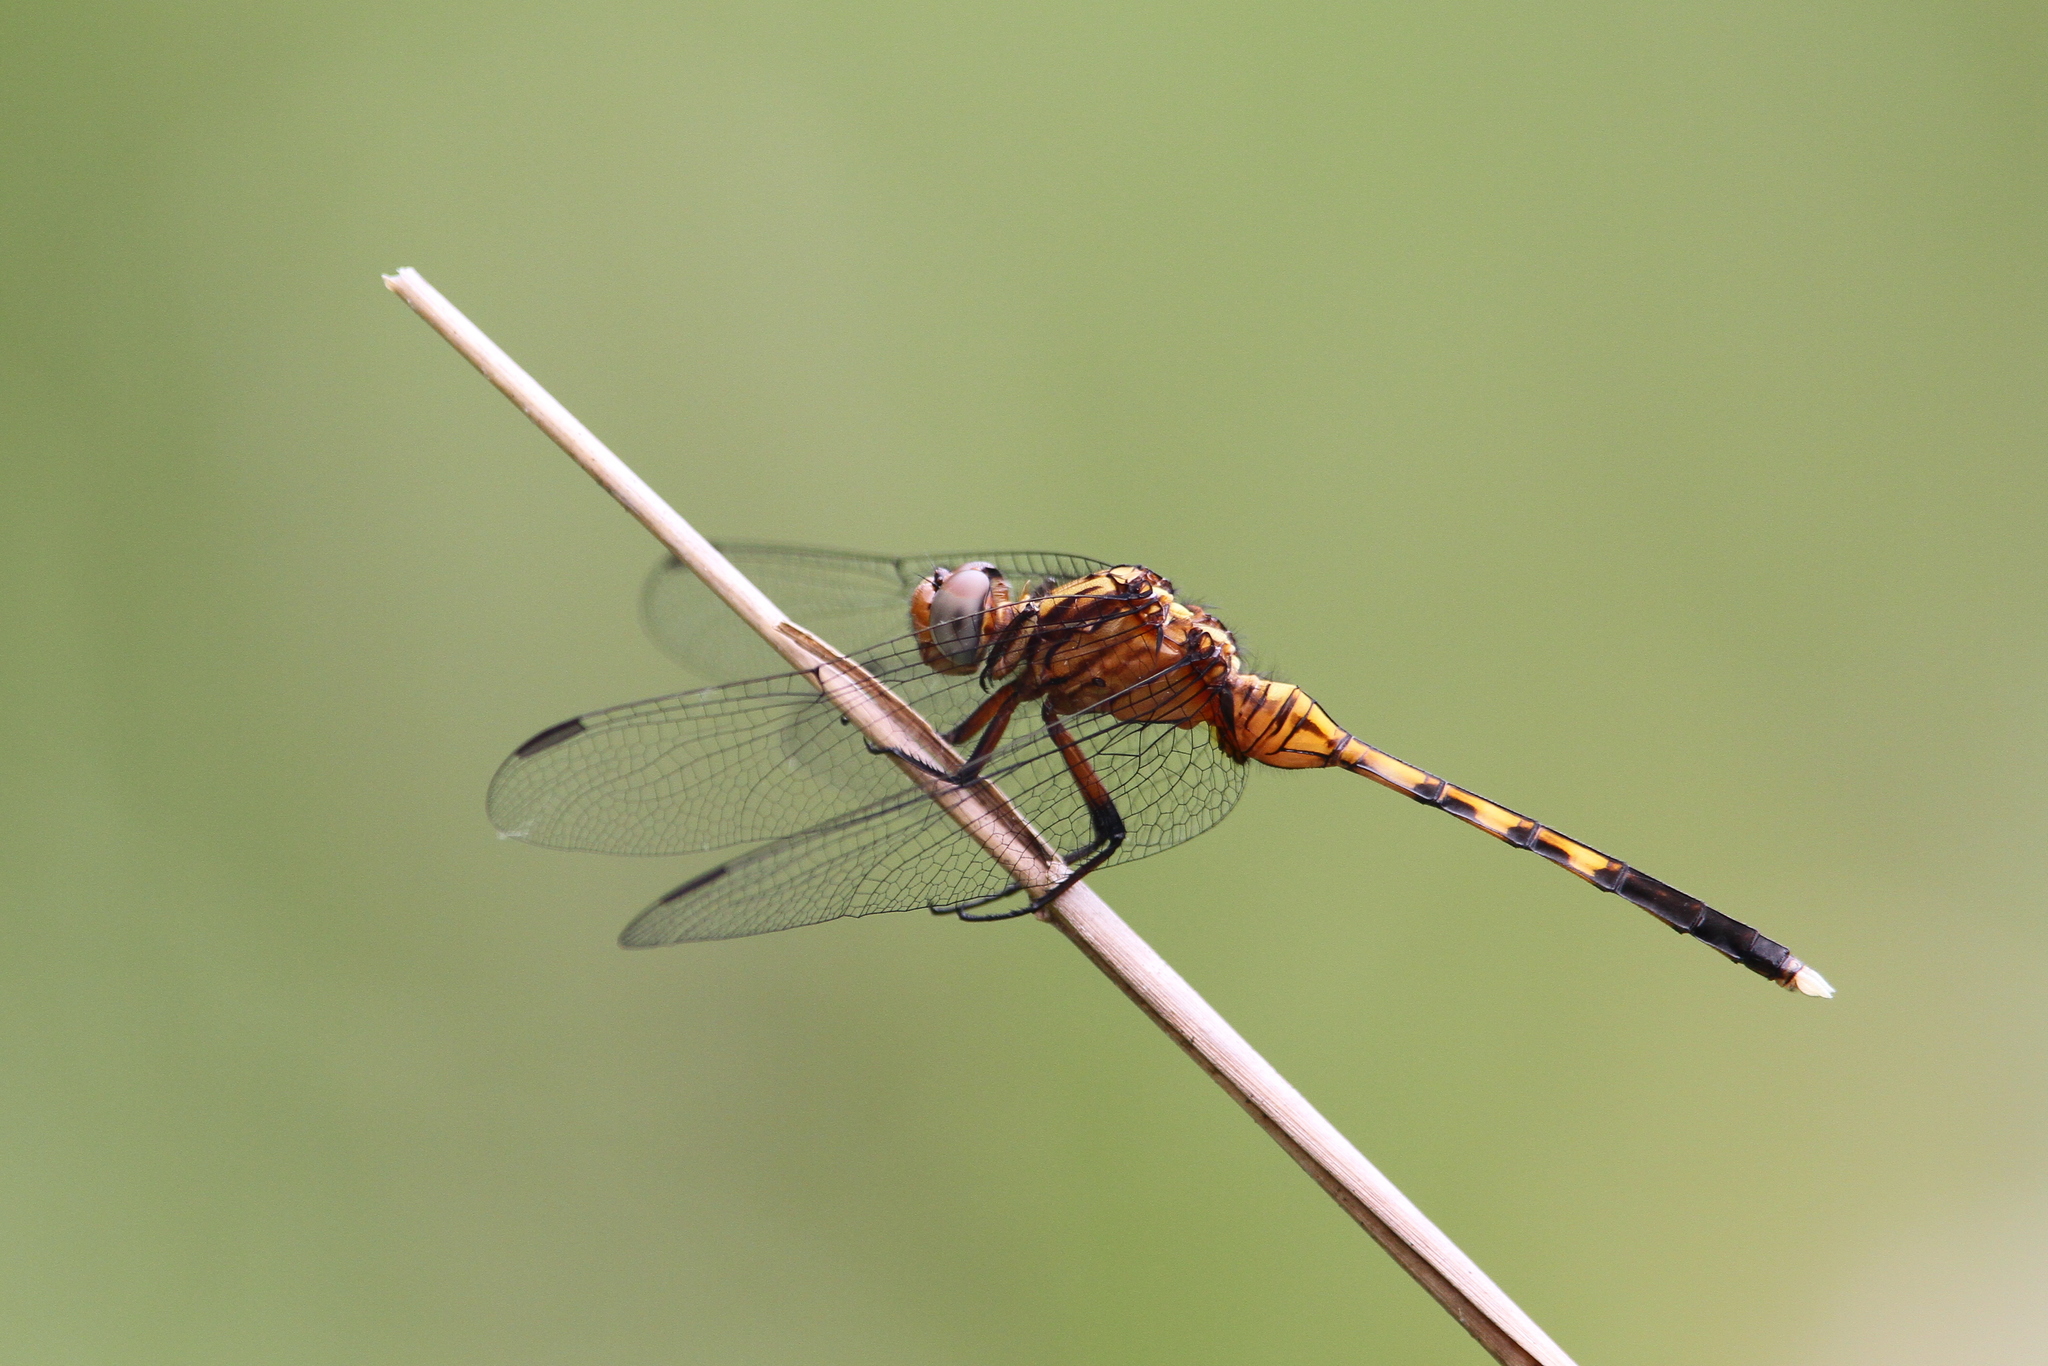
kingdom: Animalia
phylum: Arthropoda
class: Insecta
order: Odonata
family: Libellulidae
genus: Orthetrum
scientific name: Orthetrum julia
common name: Julia skimmer
